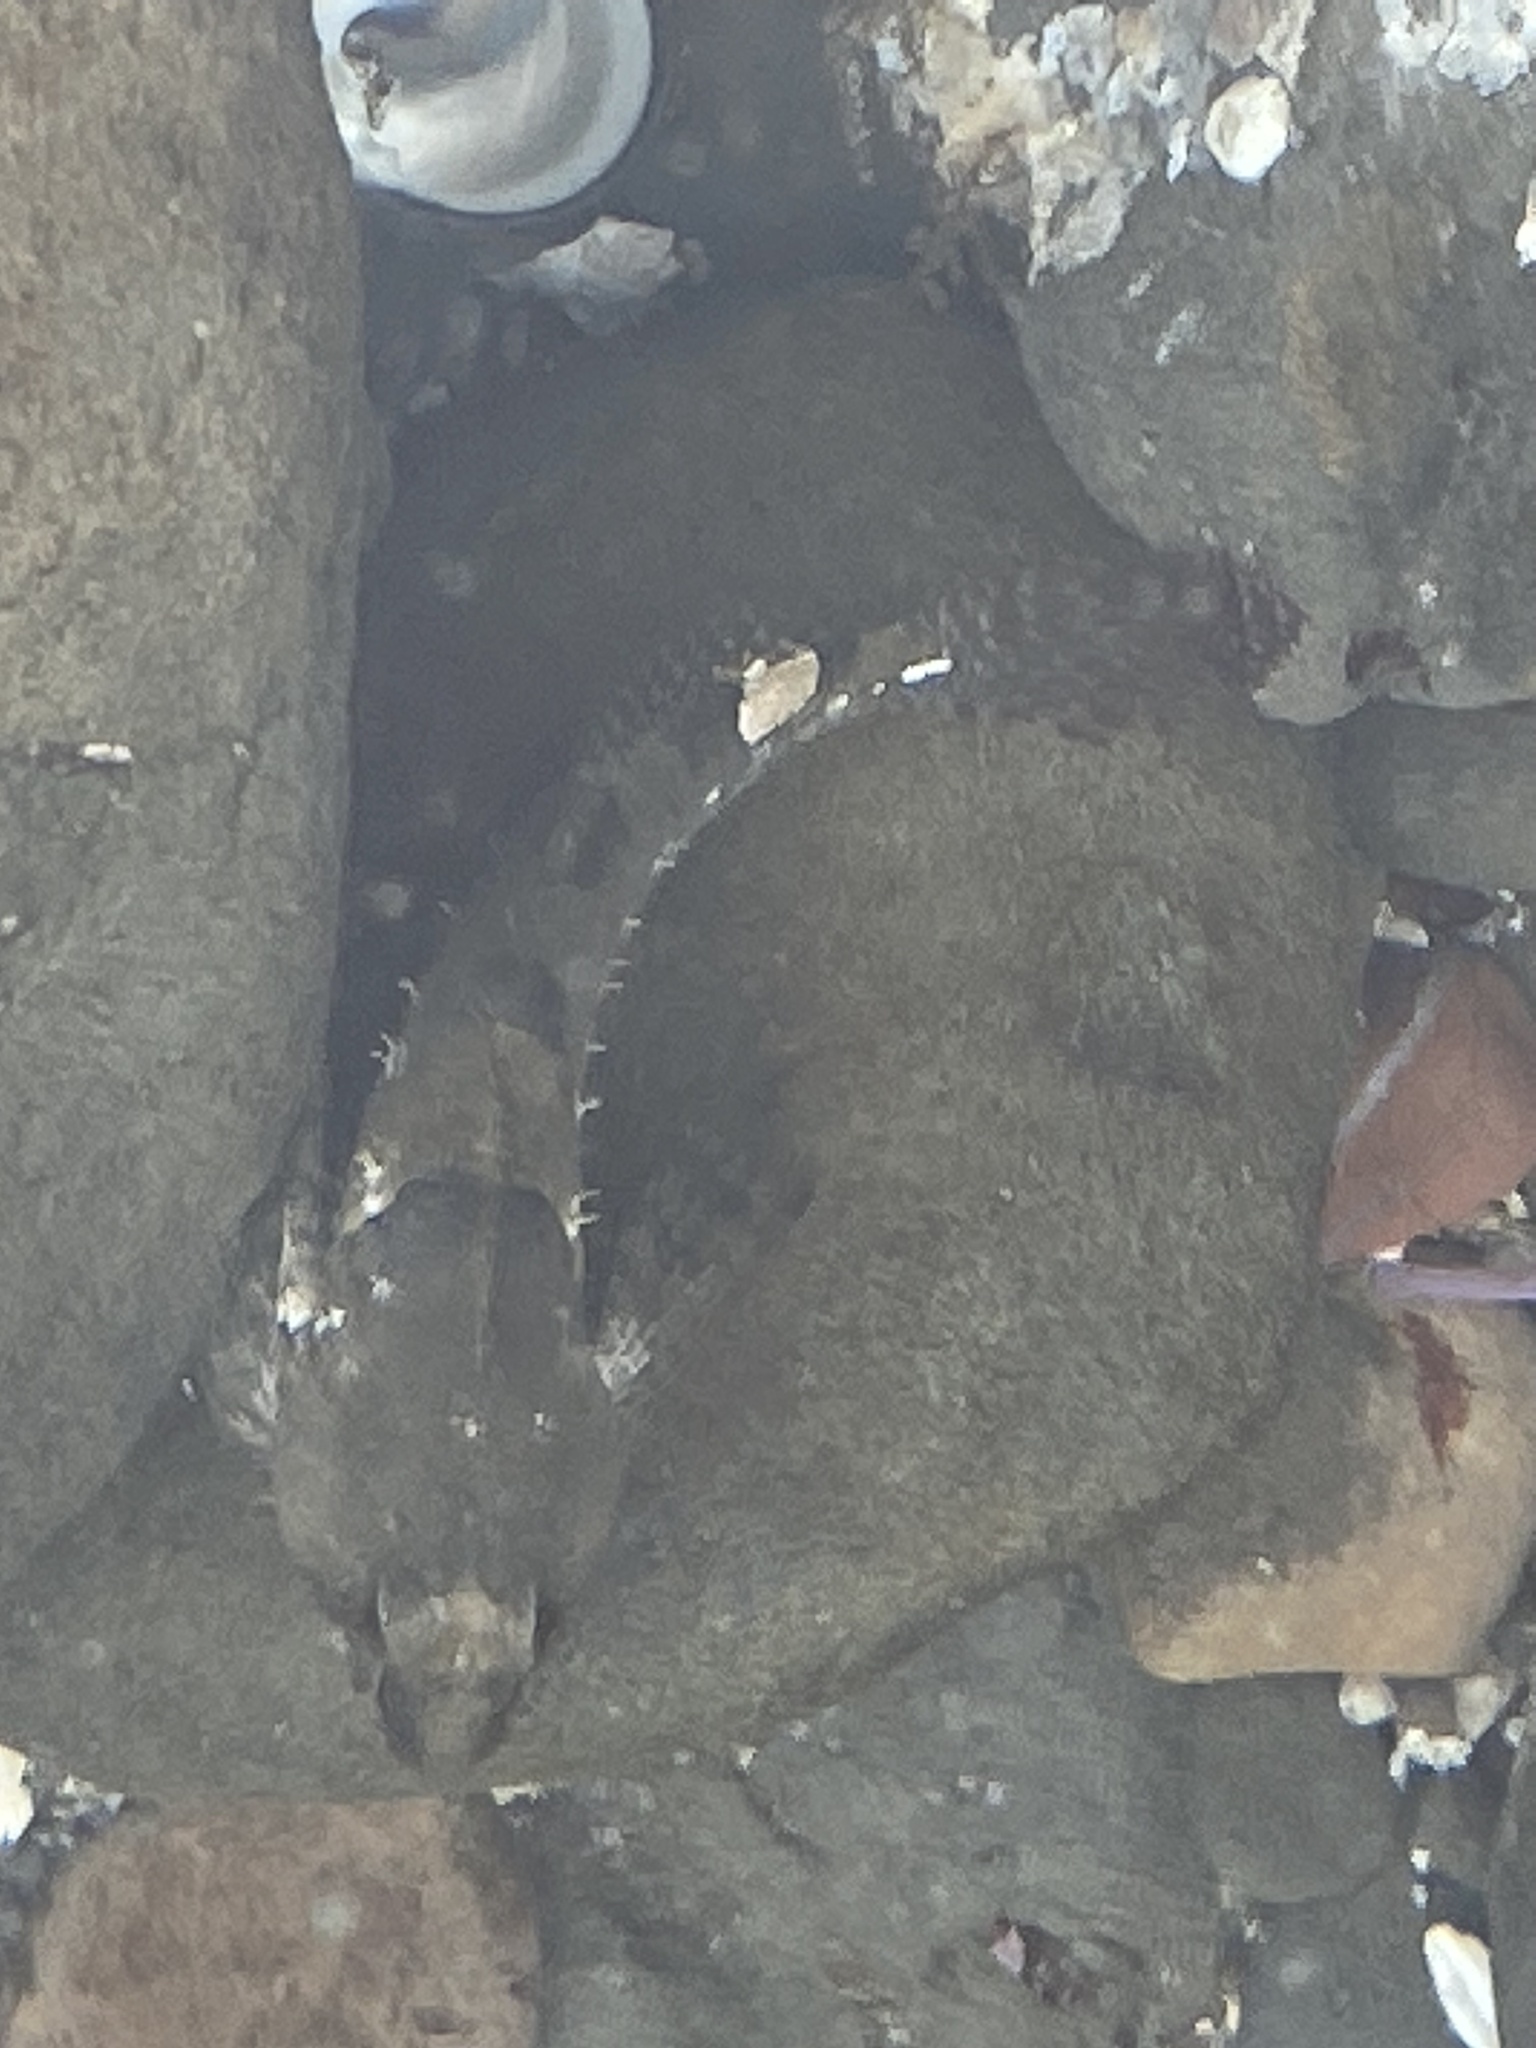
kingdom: Animalia
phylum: Chordata
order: Scorpaeniformes
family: Cottidae
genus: Oligocottus
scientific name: Oligocottus maculosus
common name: Tidepool sculpin
